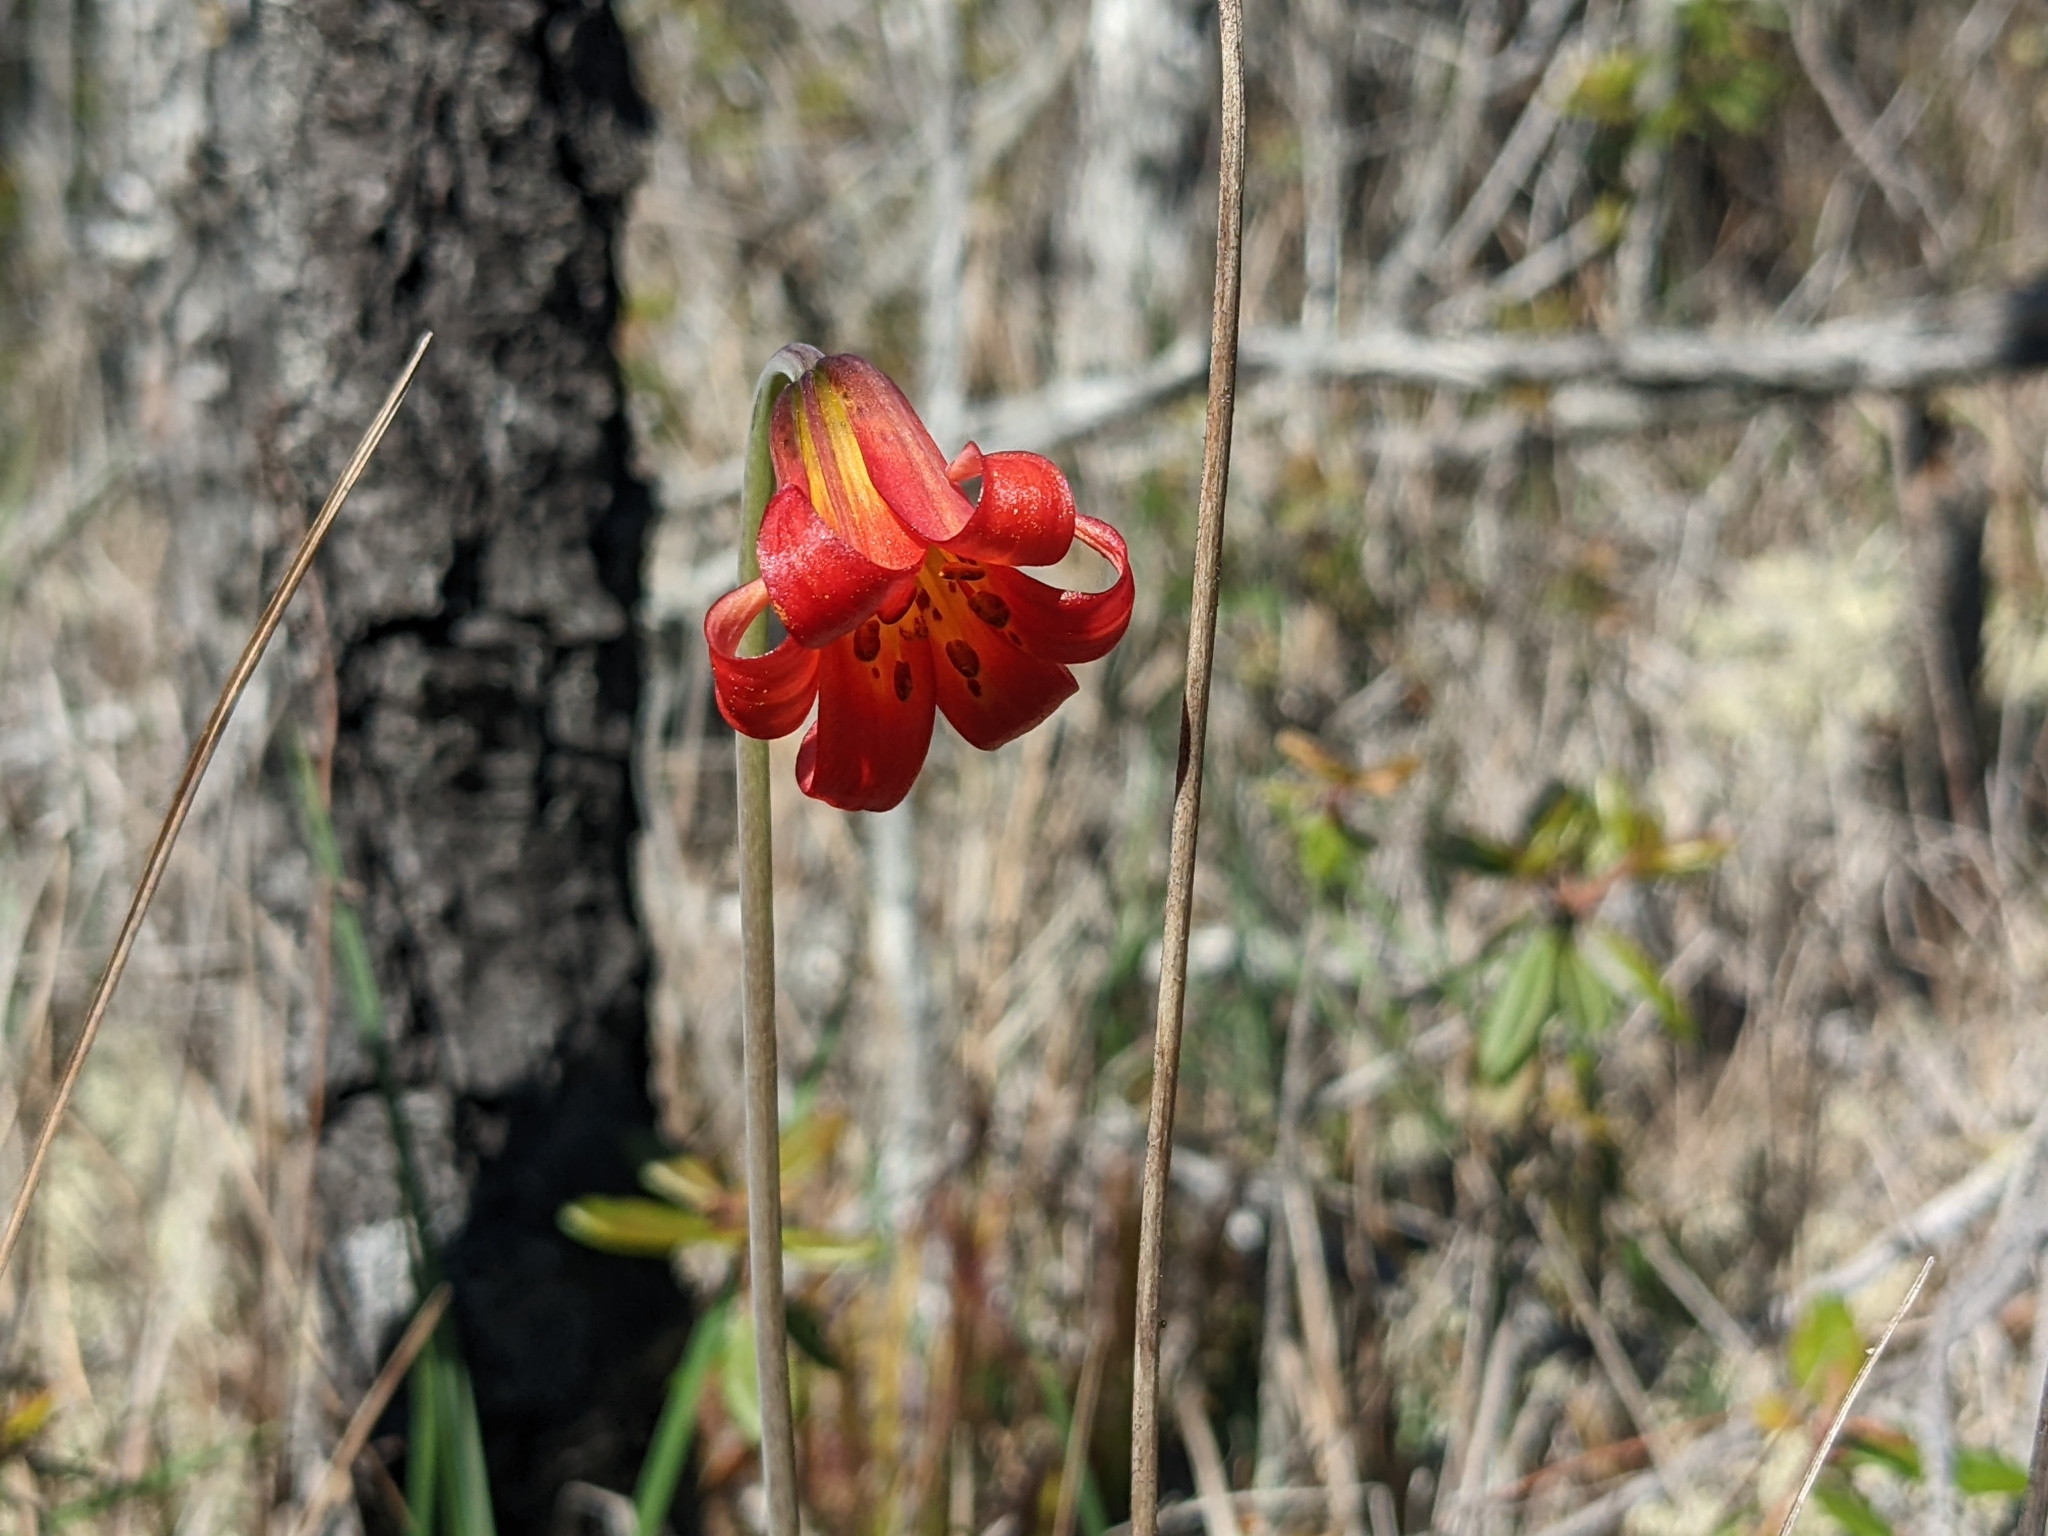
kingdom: Plantae
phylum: Tracheophyta
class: Liliopsida
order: Liliales
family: Liliaceae
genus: Lilium
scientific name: Lilium maritimum
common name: Coastal lily
